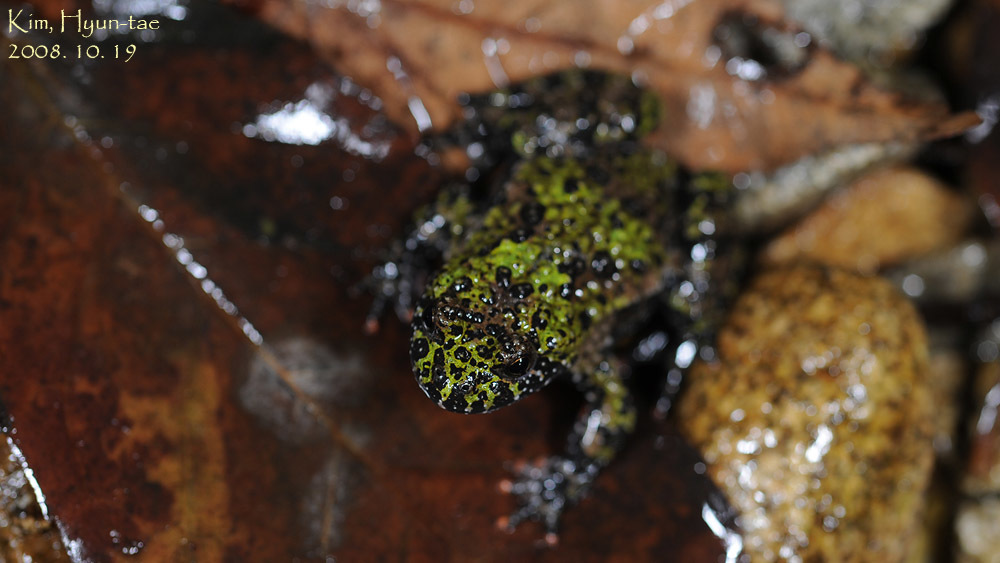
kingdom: Animalia
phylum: Chordata
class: Amphibia
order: Anura
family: Bombinatoridae
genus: Bombina
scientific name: Bombina orientalis
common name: Oriental firebelly toad
